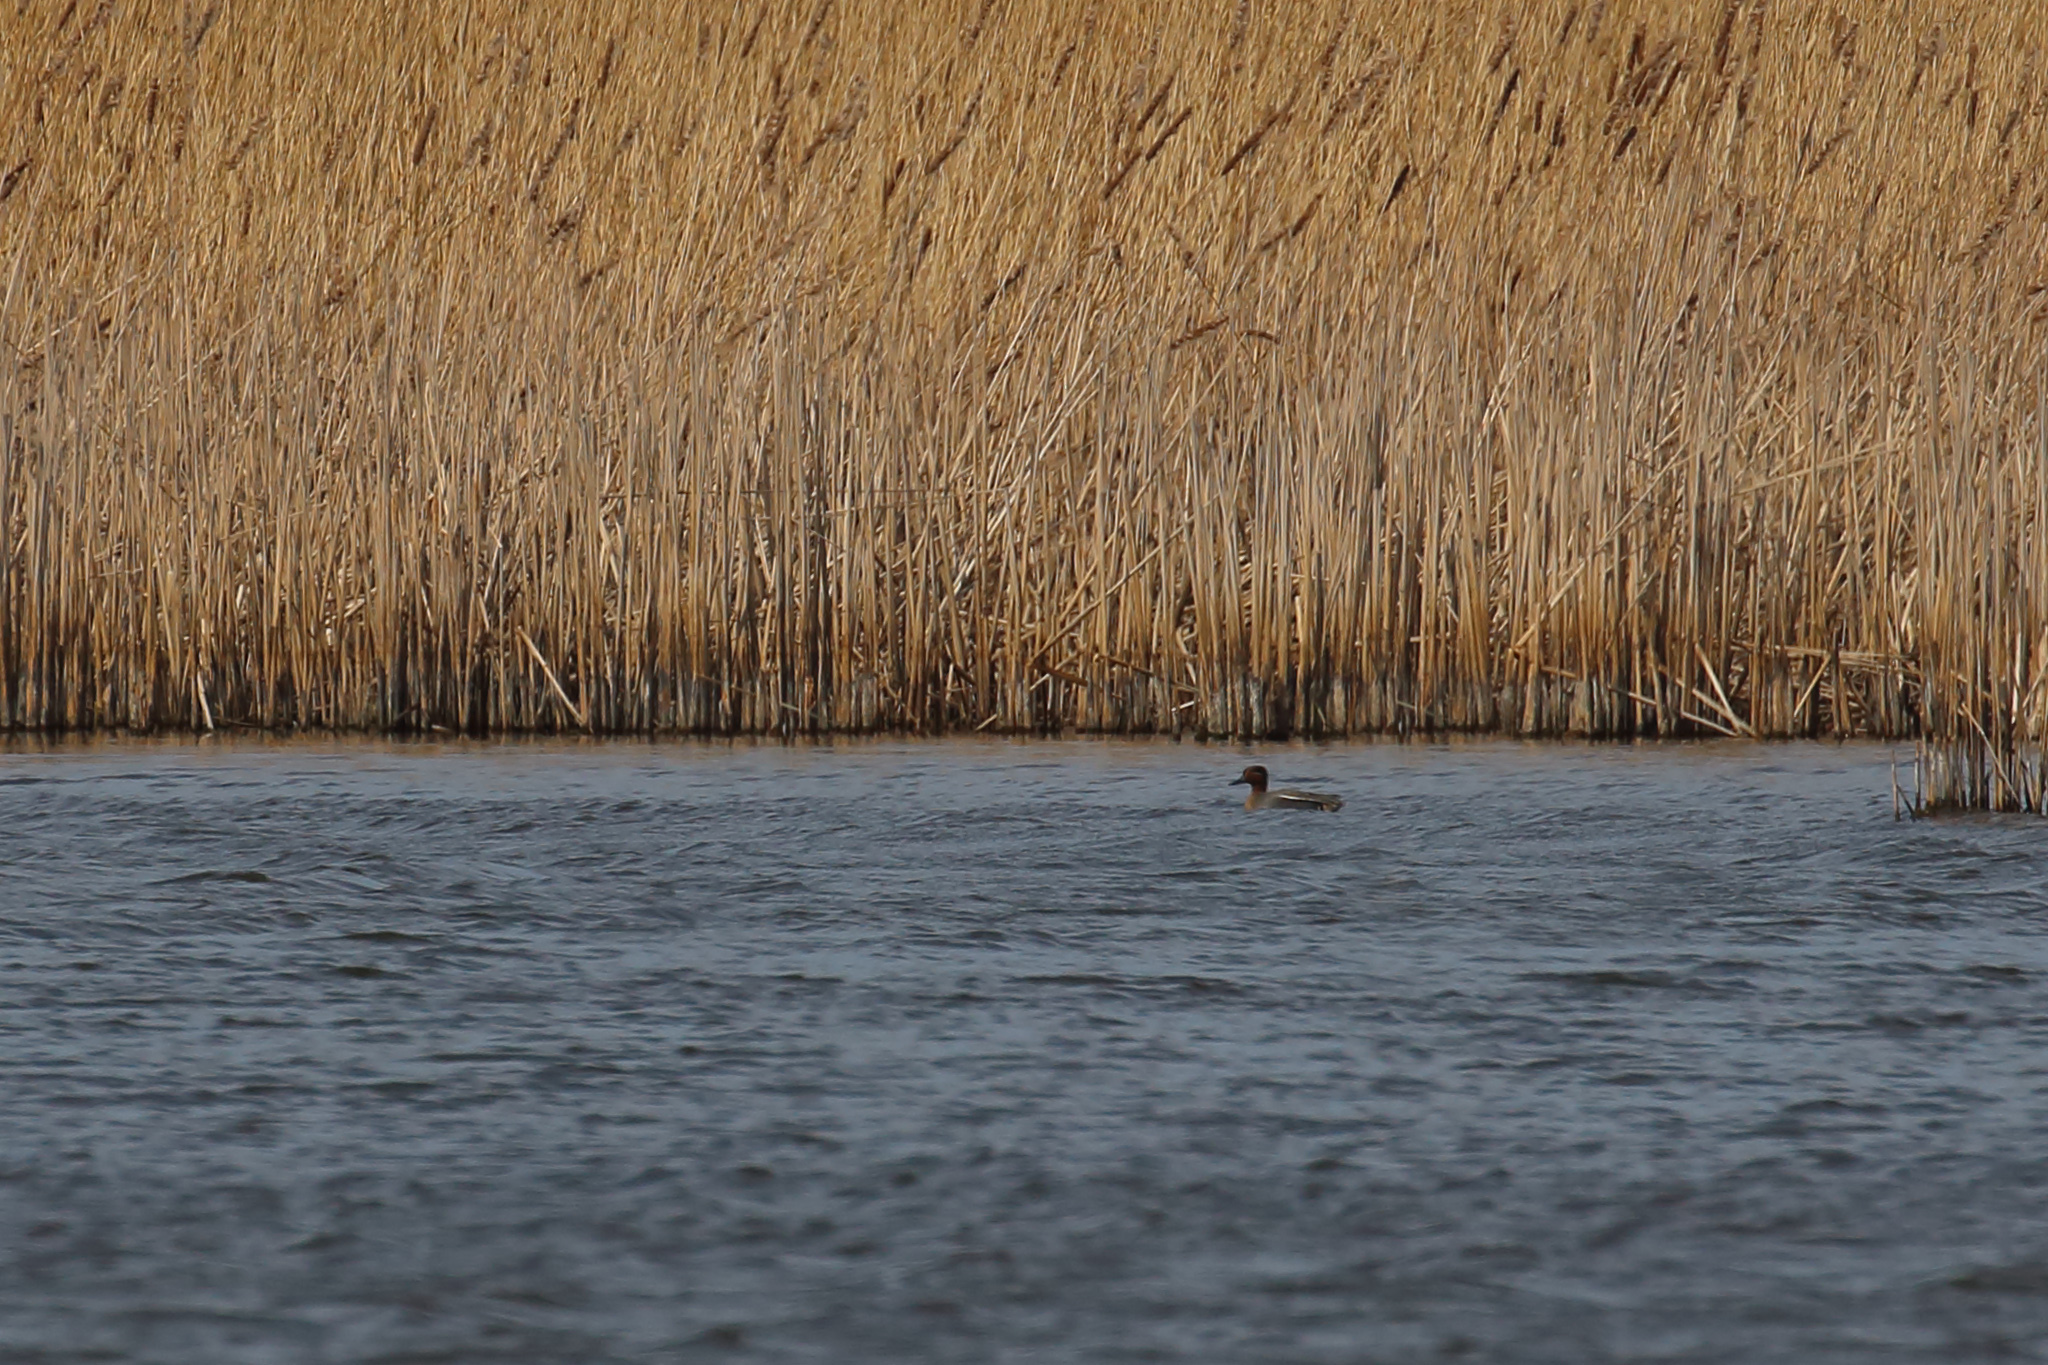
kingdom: Animalia
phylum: Chordata
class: Aves
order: Anseriformes
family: Anatidae
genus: Anas
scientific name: Anas crecca
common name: Eurasian teal
